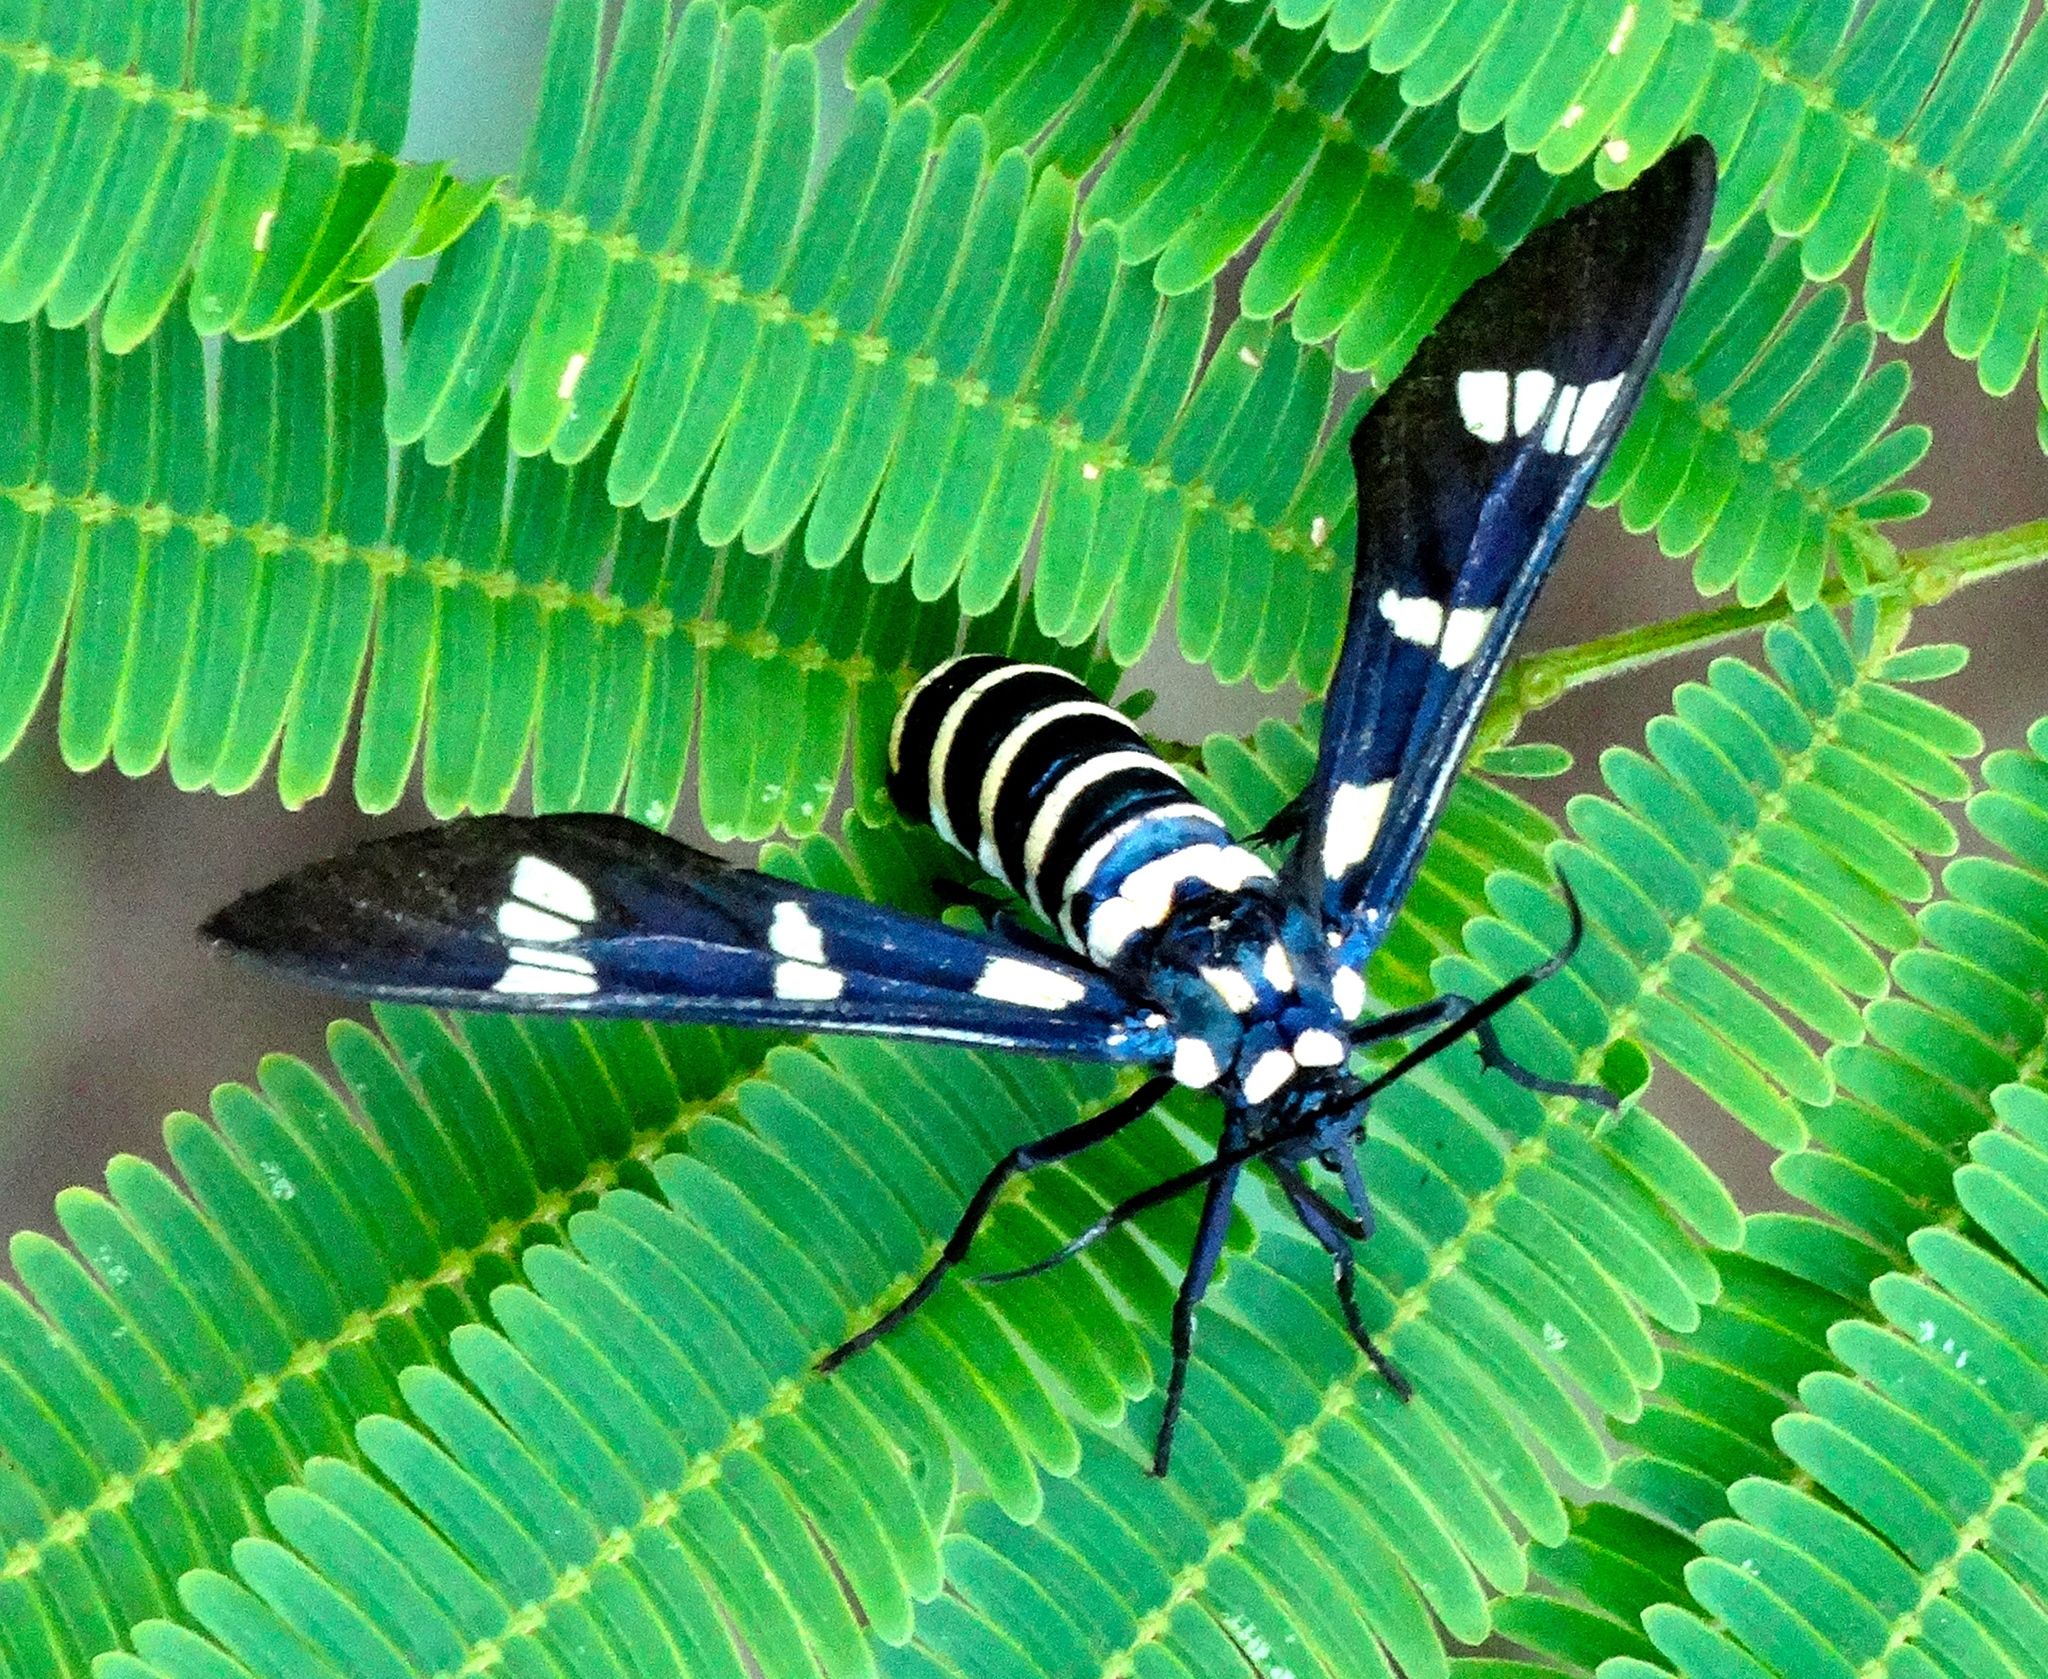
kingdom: Animalia
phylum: Arthropoda
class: Insecta
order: Lepidoptera
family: Erebidae
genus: Syntomeida
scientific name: Syntomeida melanthus
